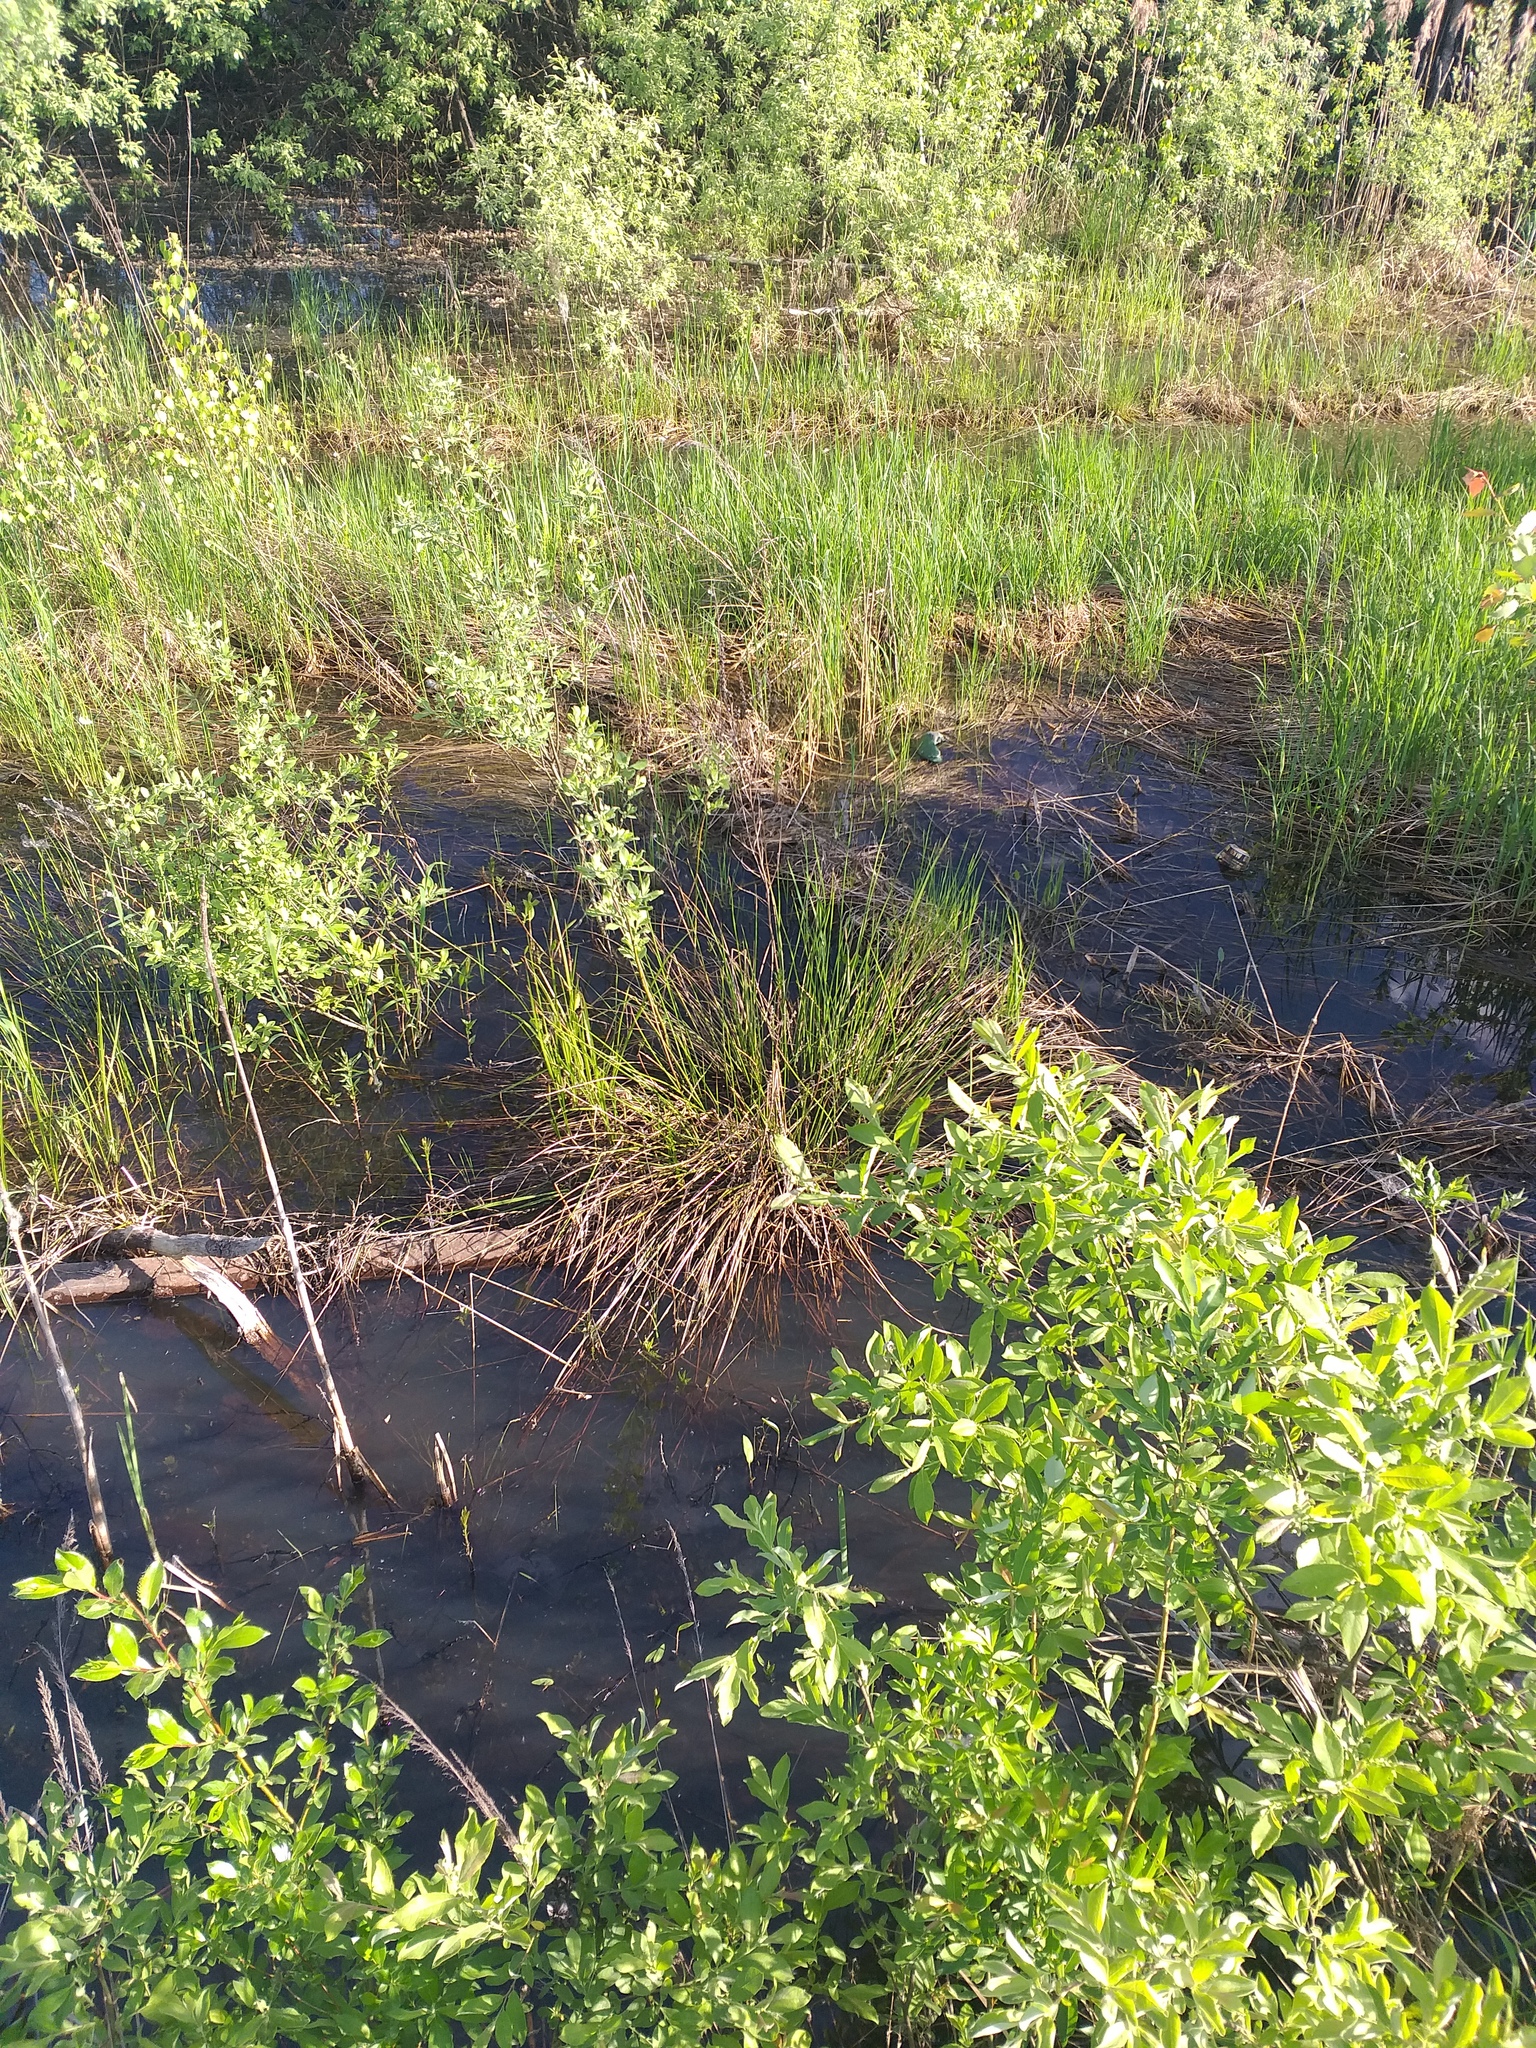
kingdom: Plantae
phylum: Tracheophyta
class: Liliopsida
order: Poales
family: Juncaceae
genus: Juncus
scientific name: Juncus effusus
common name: Soft rush
